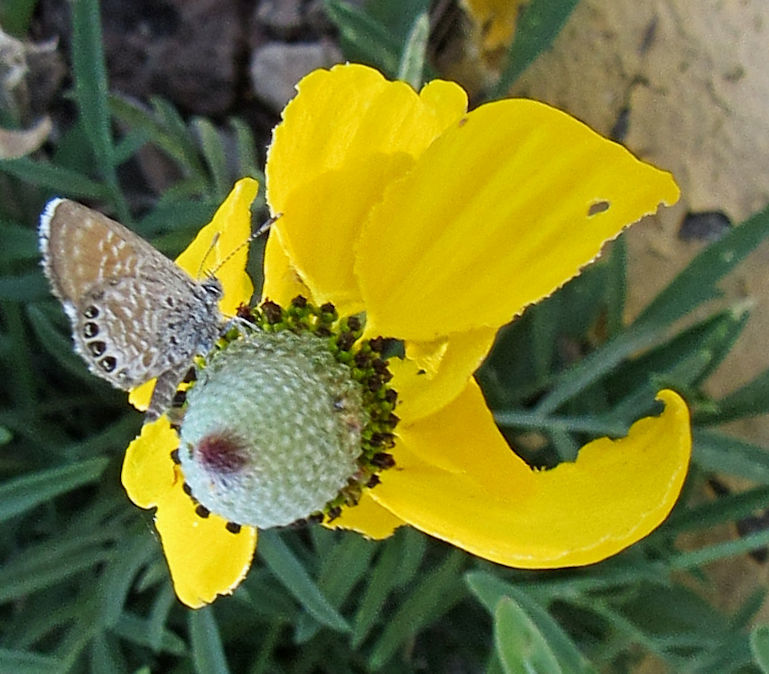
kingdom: Animalia
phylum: Arthropoda
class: Insecta
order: Lepidoptera
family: Lycaenidae
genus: Brephidium
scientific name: Brephidium exilis
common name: Pygmy blue
